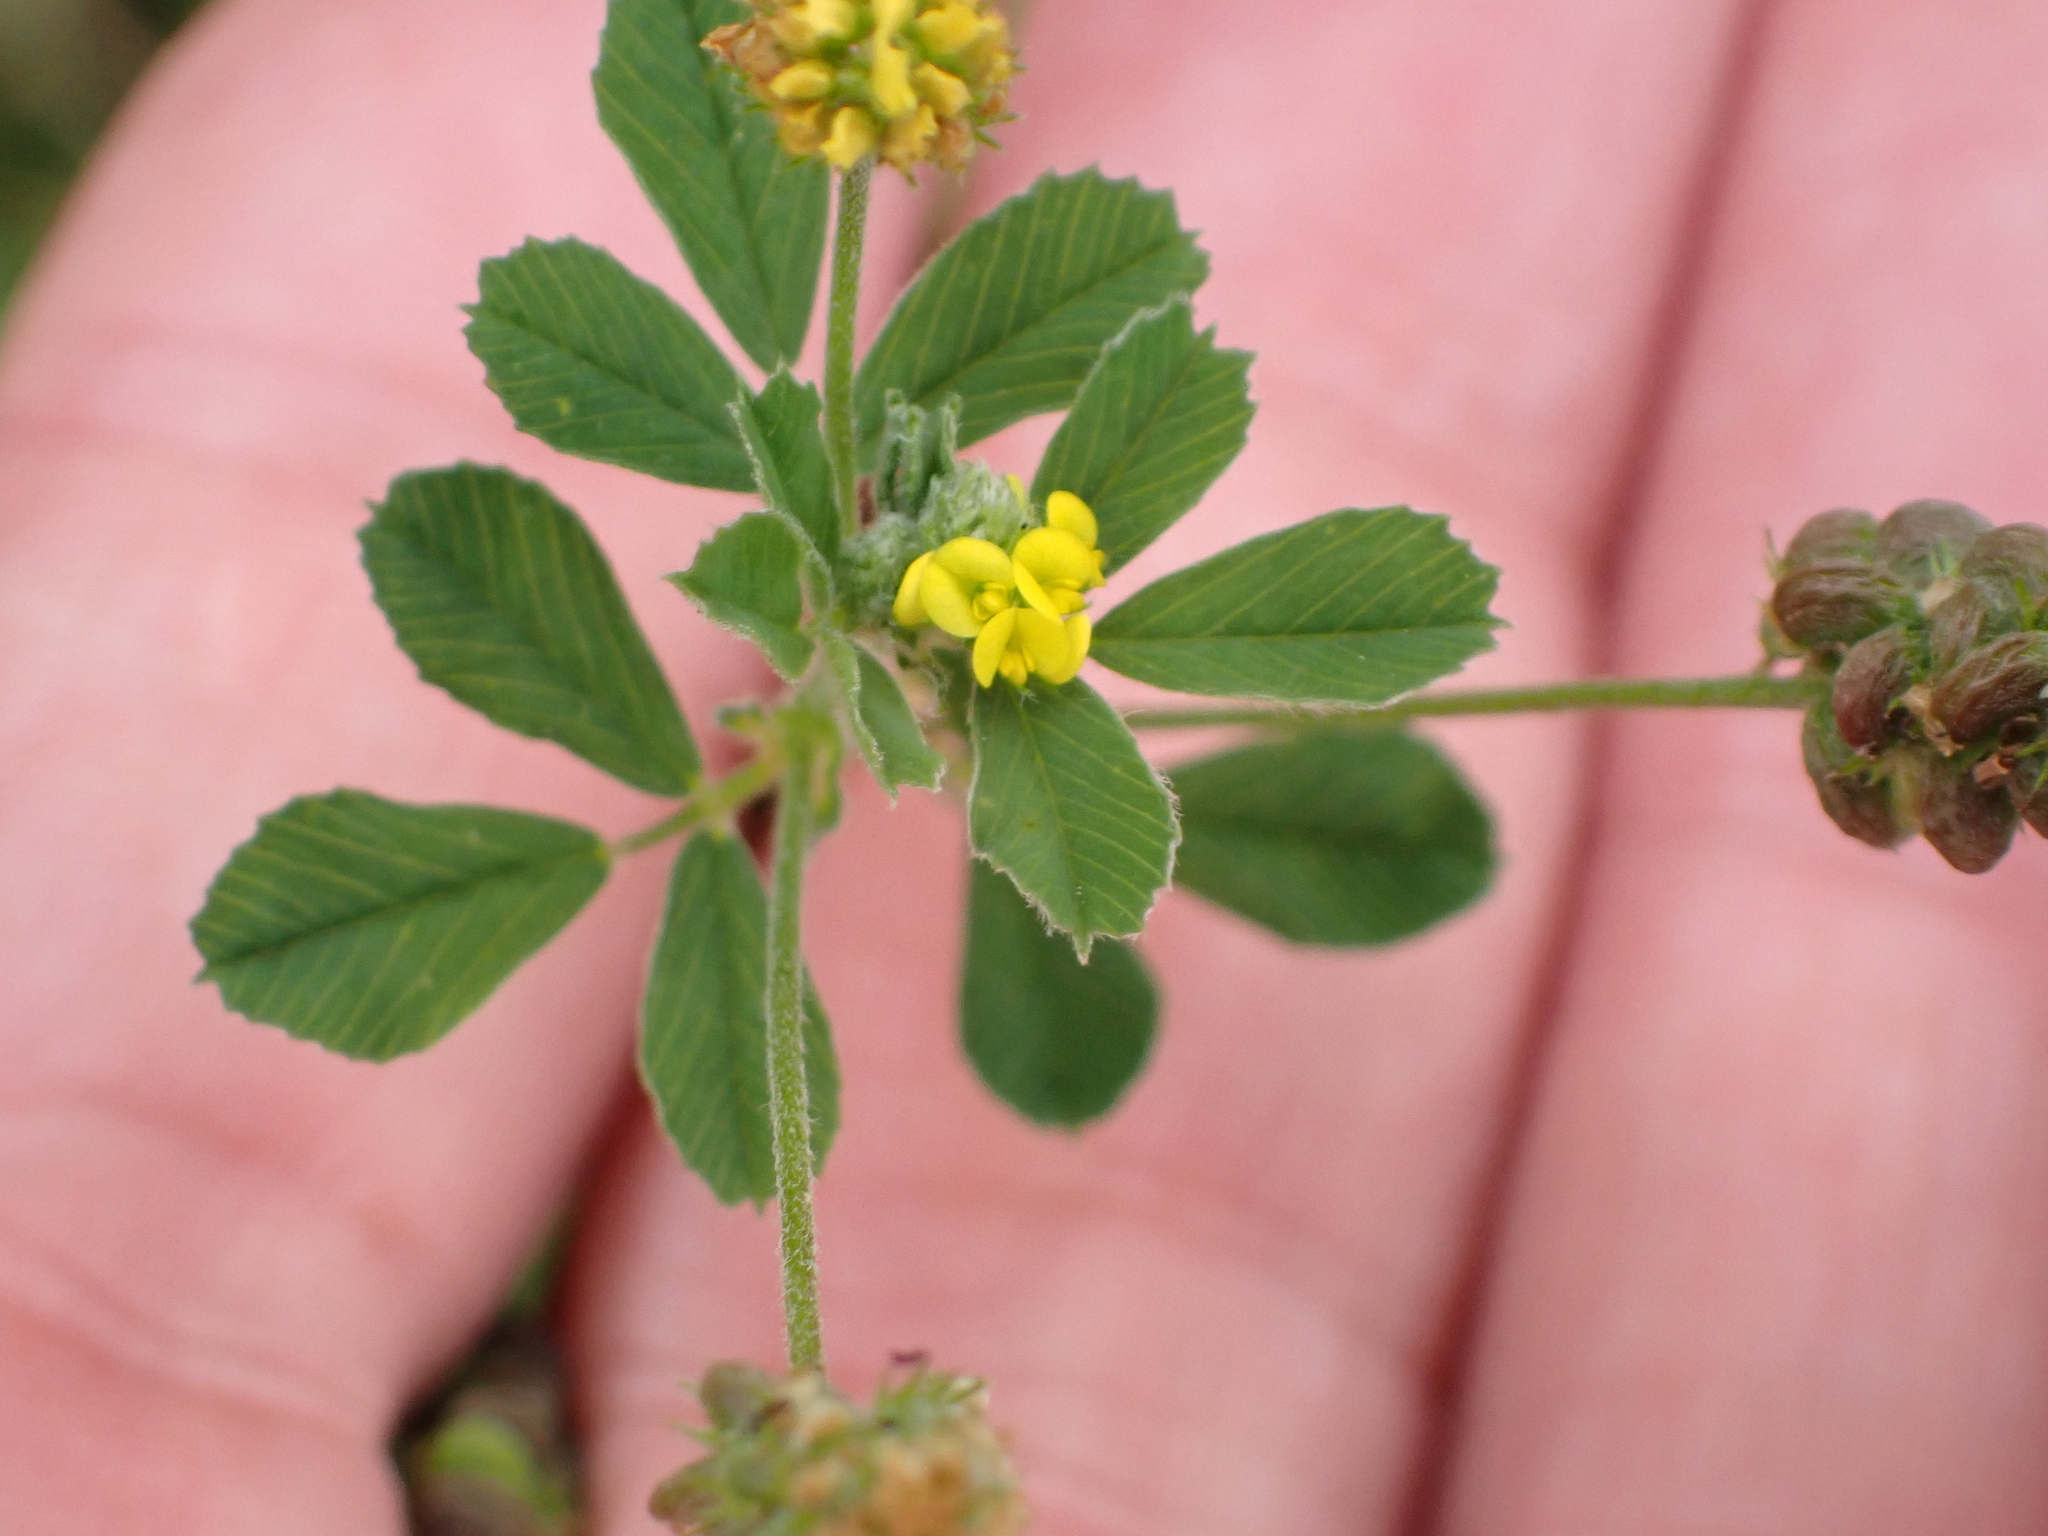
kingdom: Plantae
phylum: Tracheophyta
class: Magnoliopsida
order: Fabales
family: Fabaceae
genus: Medicago
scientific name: Medicago lupulina
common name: Black medick
